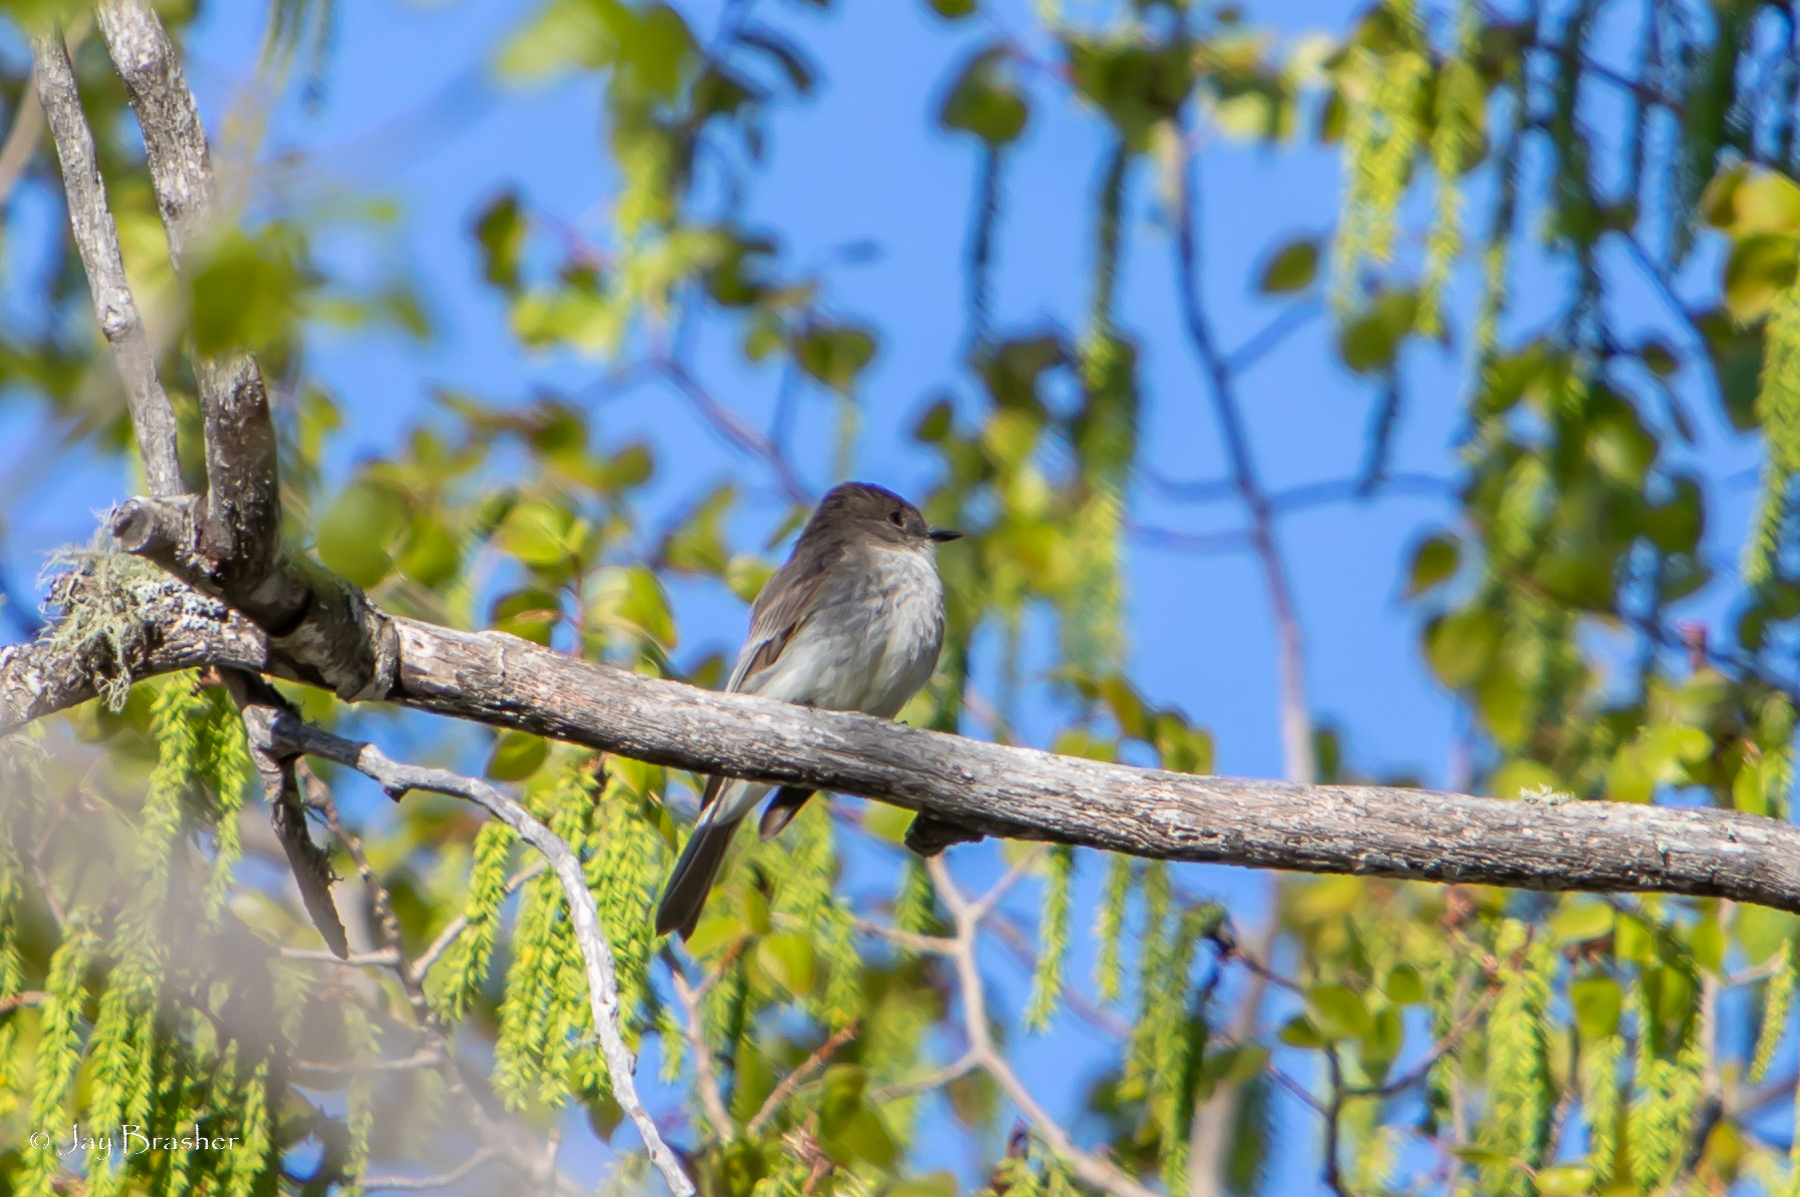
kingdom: Animalia
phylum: Chordata
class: Aves
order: Passeriformes
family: Tyrannidae
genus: Sayornis
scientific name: Sayornis phoebe
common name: Eastern phoebe
